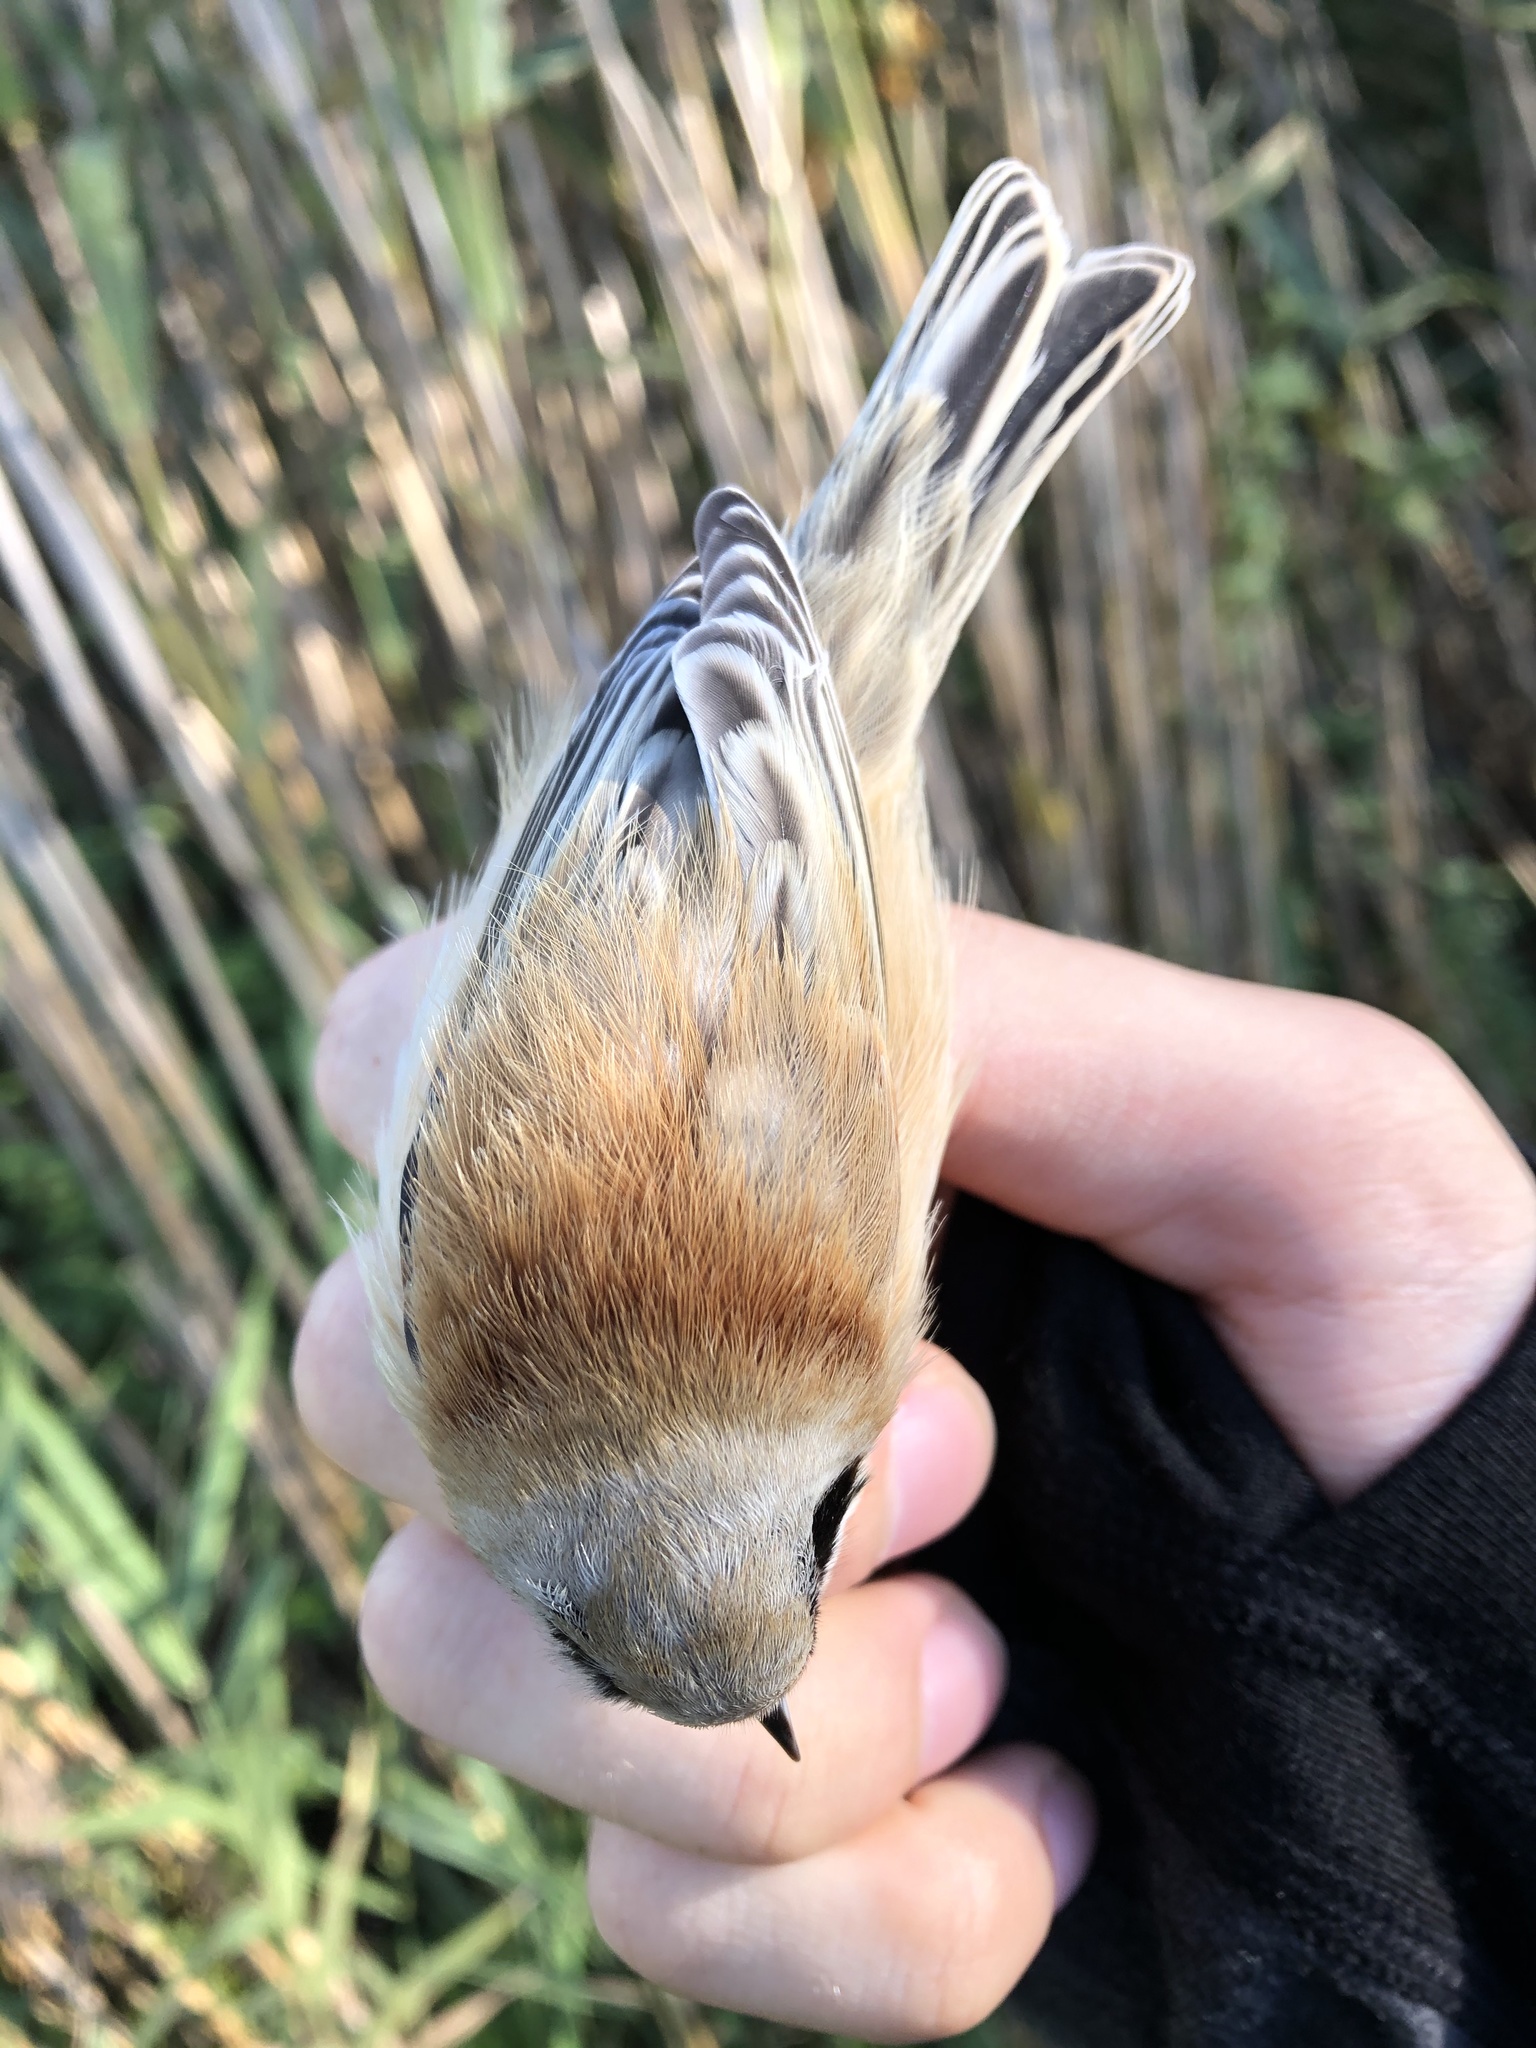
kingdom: Animalia
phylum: Chordata
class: Aves
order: Passeriformes
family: Remizidae
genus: Remiz
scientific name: Remiz pendulinus
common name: Eurasian penduline tit
